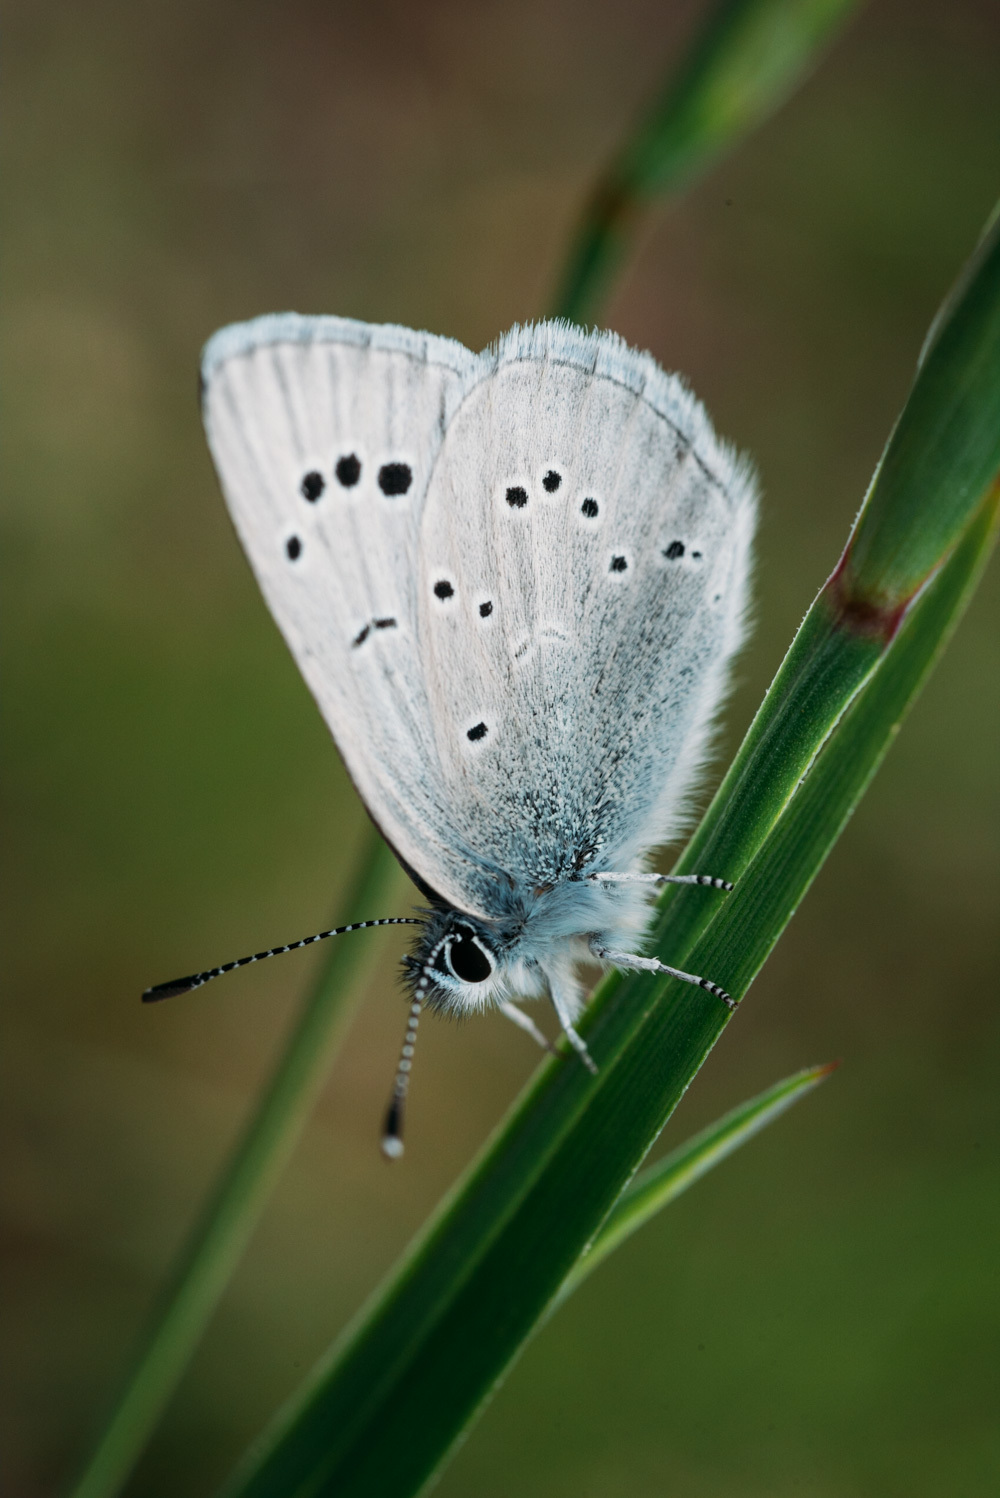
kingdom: Animalia
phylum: Arthropoda
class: Insecta
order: Lepidoptera
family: Lycaenidae
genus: Glaucopsyche
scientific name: Glaucopsyche lygdamus
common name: Silvery blue
